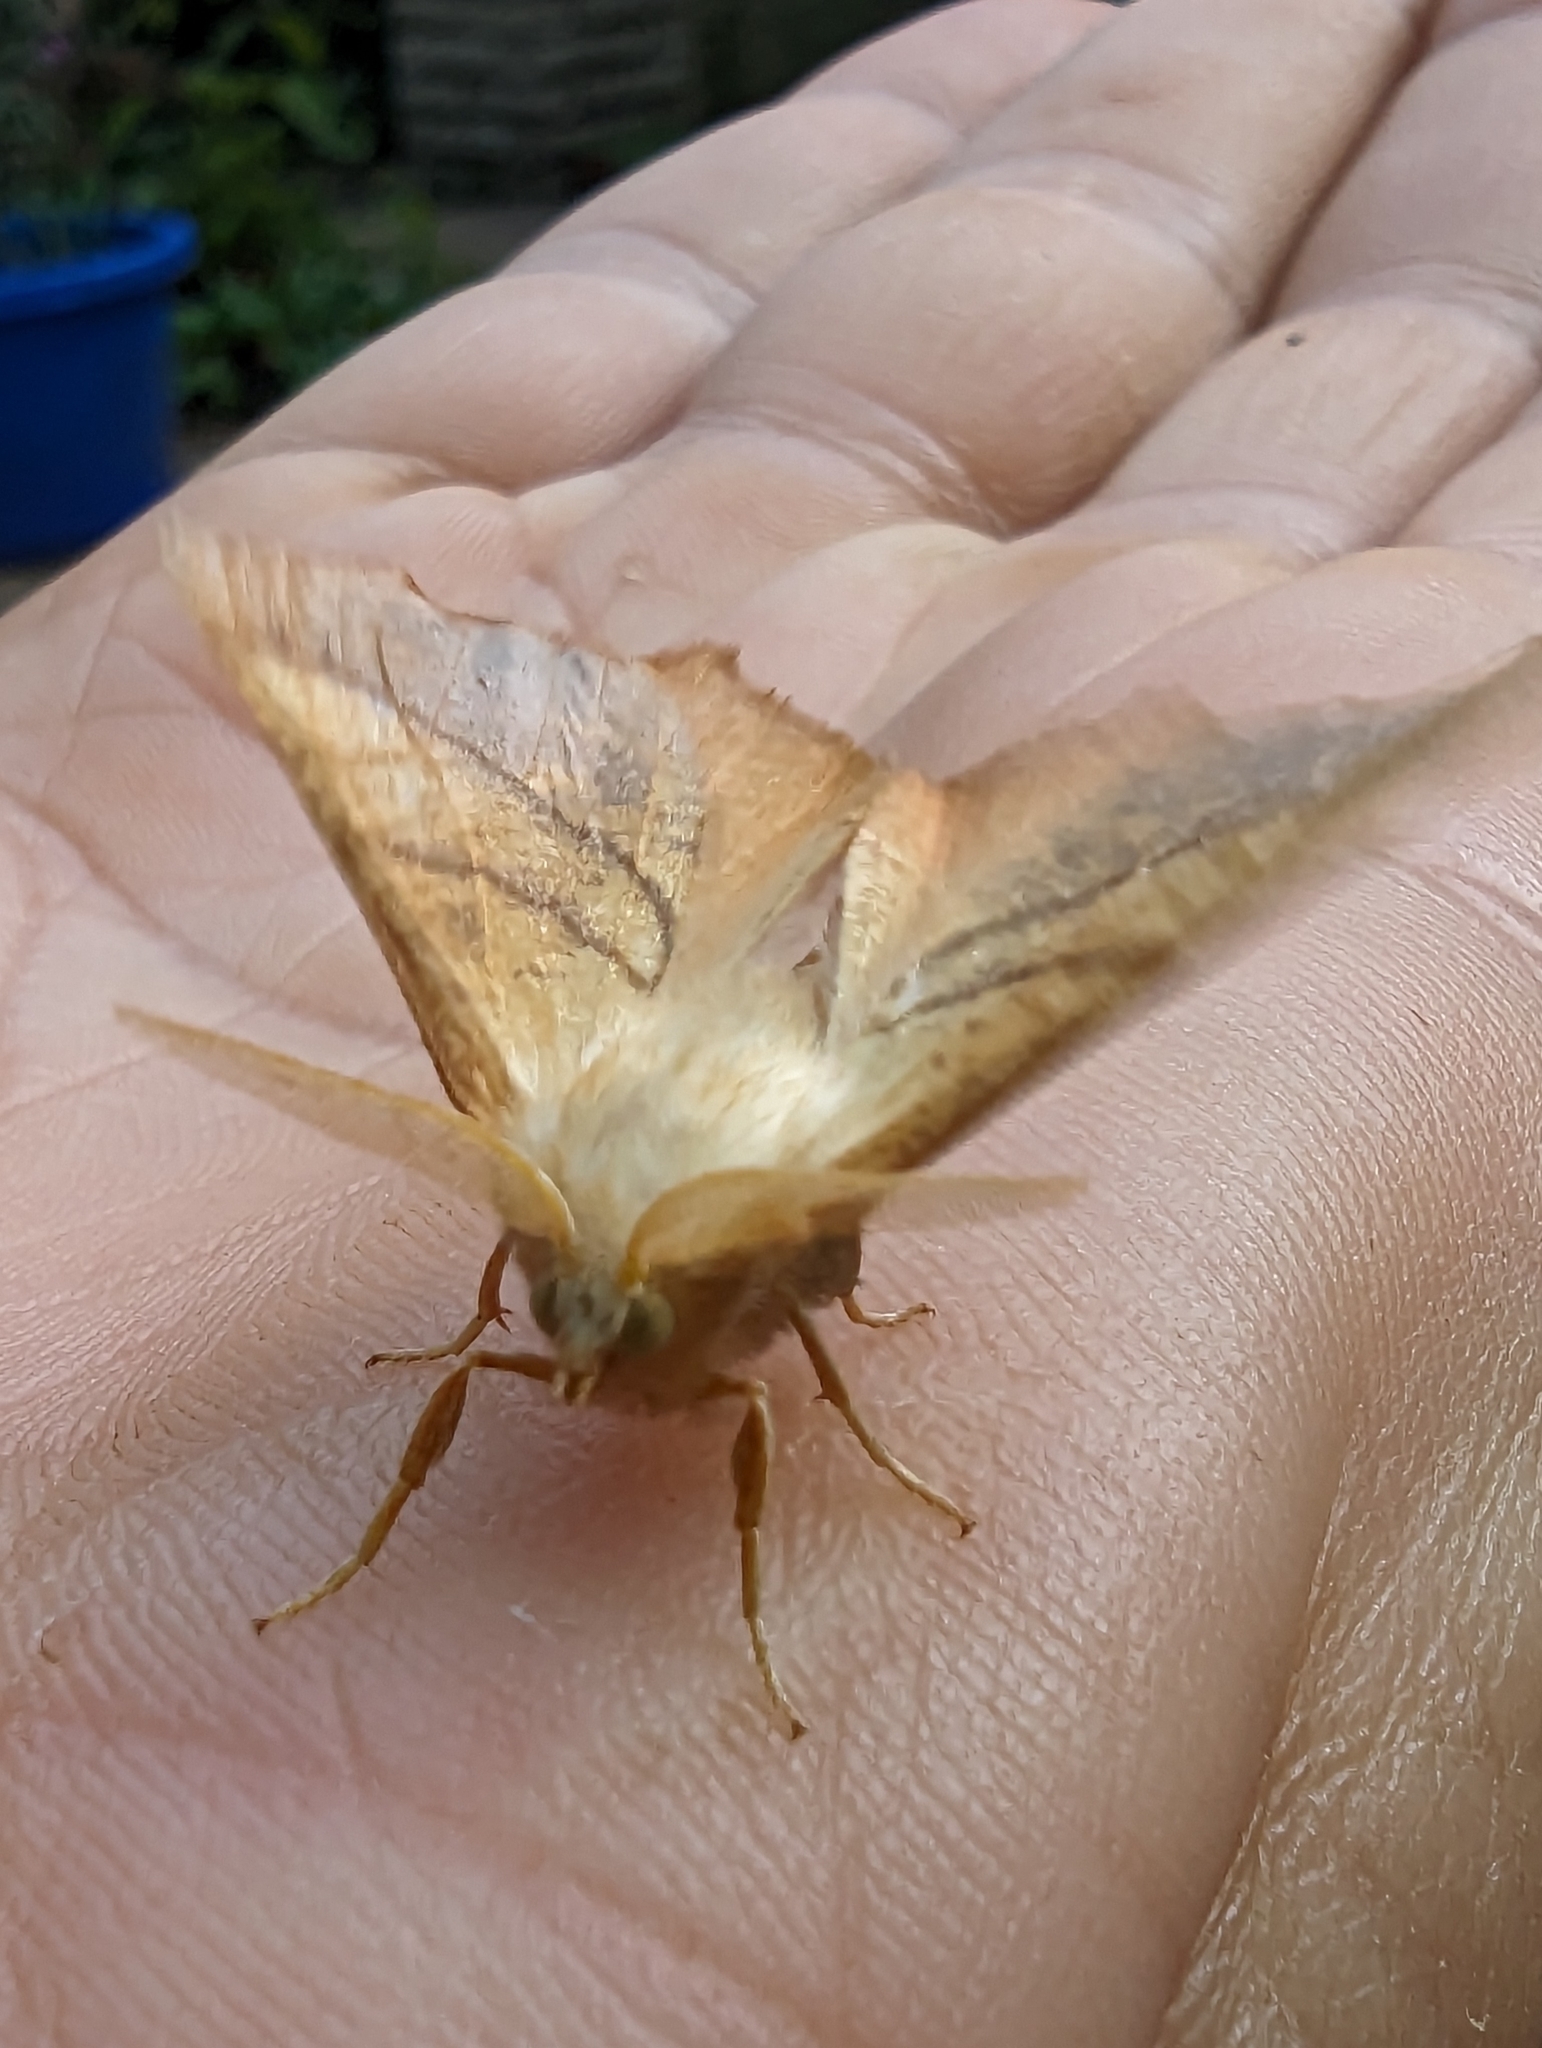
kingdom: Animalia
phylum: Arthropoda
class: Insecta
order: Lepidoptera
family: Geometridae
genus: Ennomos
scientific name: Ennomos fuscantaria
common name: Dusky thorn
